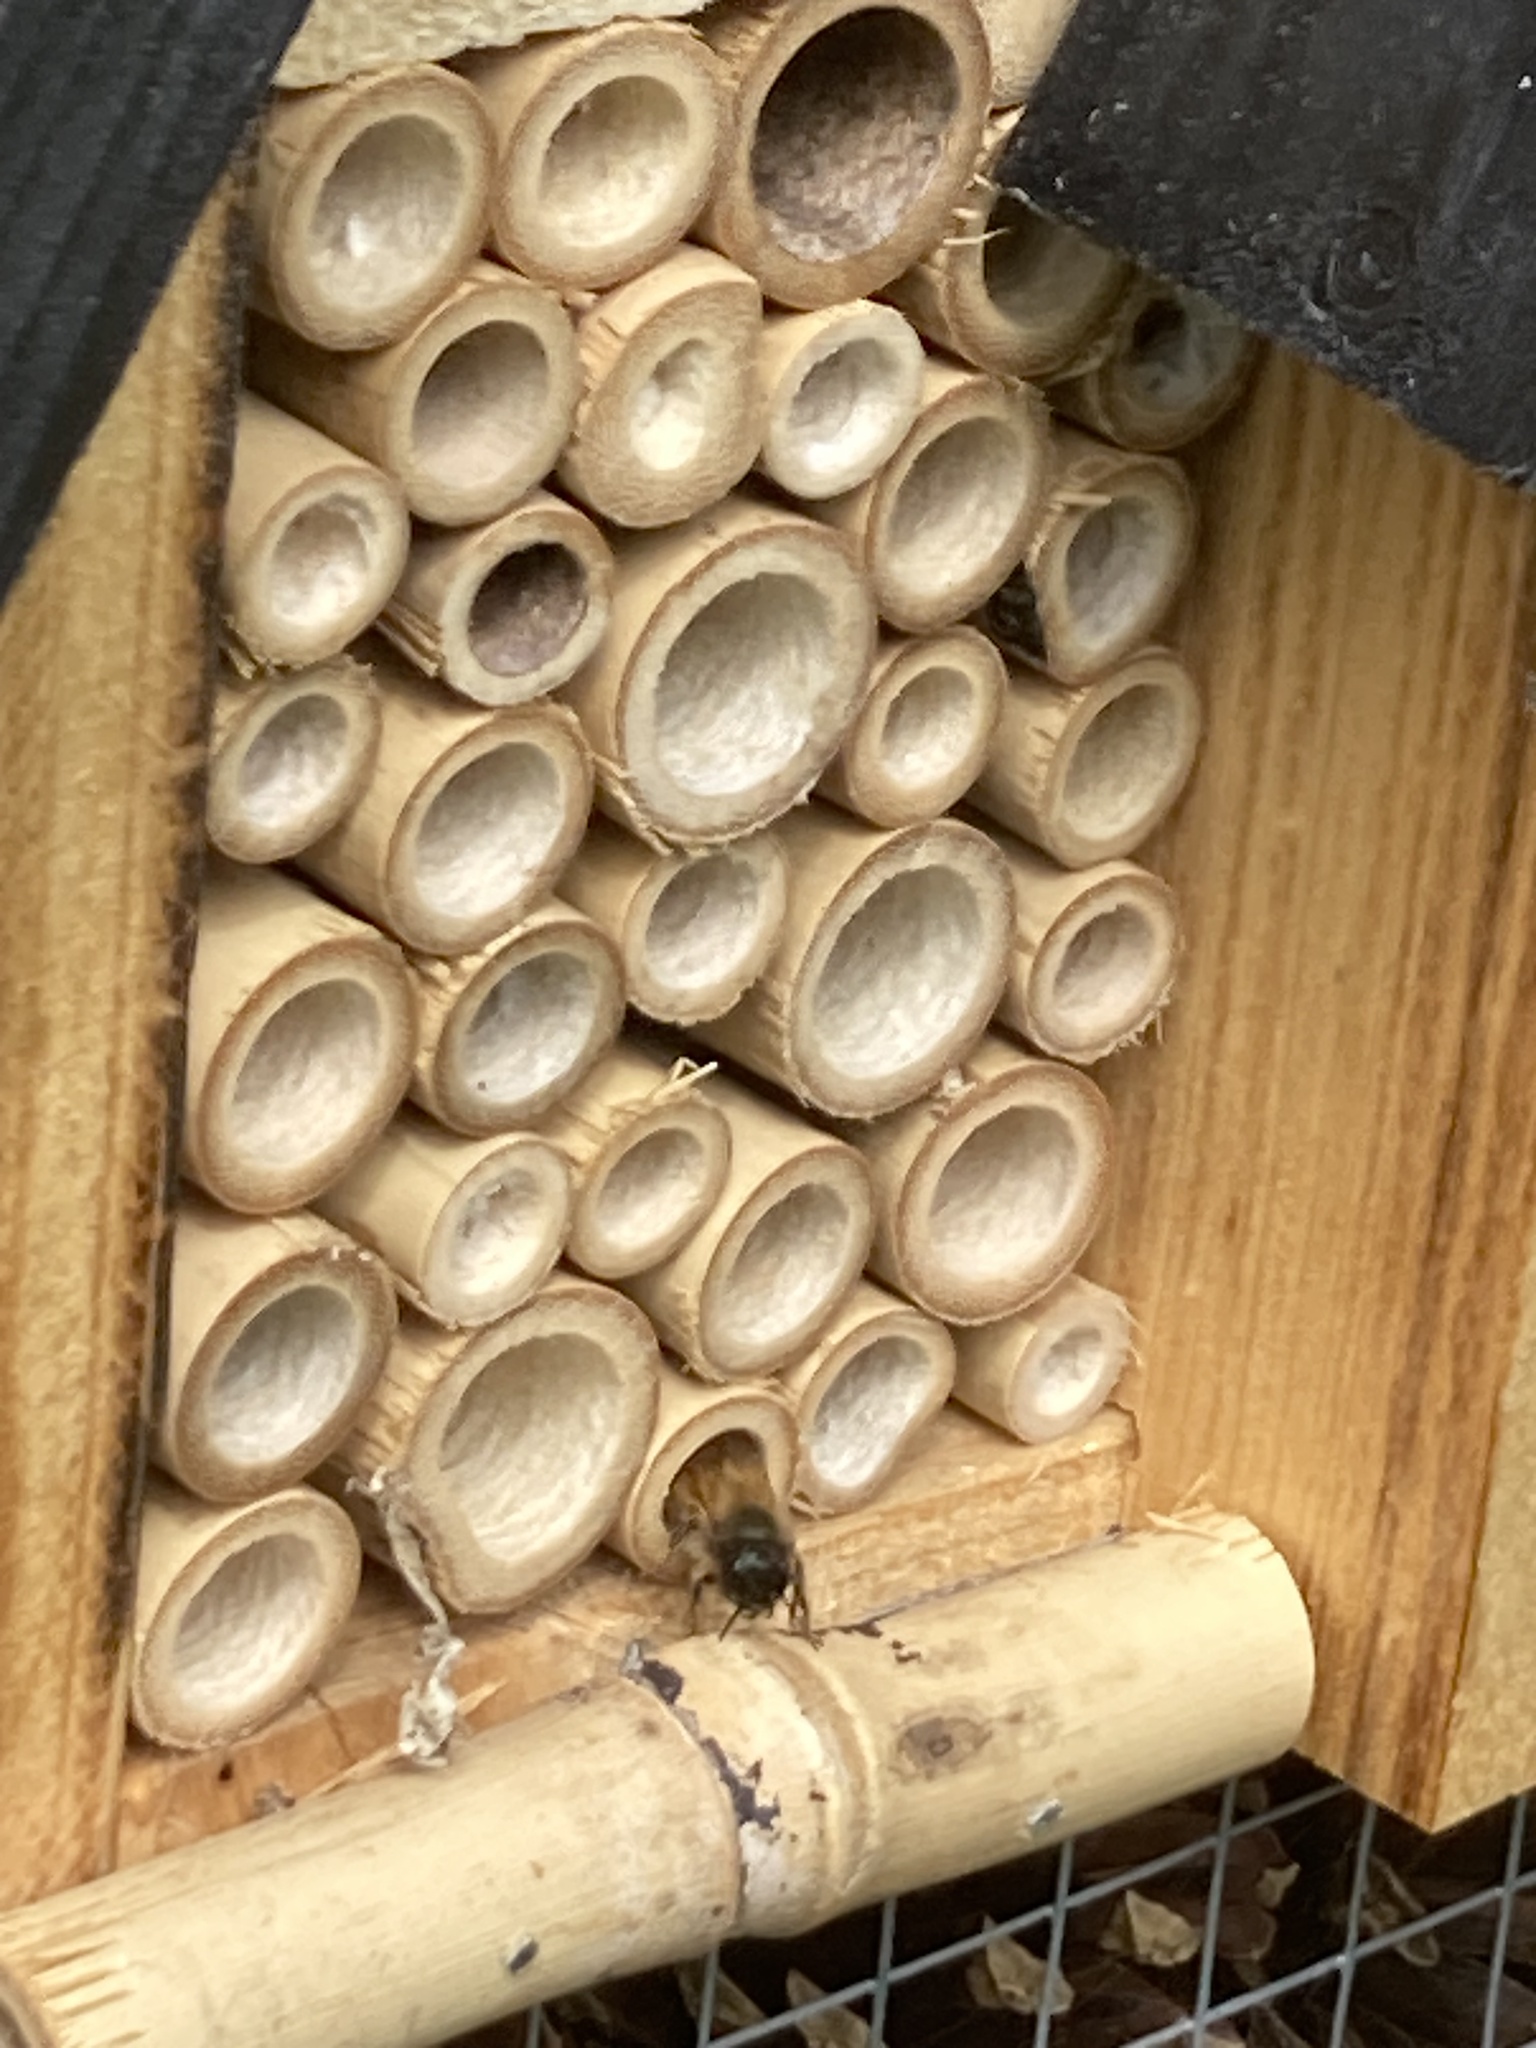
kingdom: Animalia
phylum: Arthropoda
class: Insecta
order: Hymenoptera
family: Megachilidae
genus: Osmia
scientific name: Osmia bicornis
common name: Red mason bee
